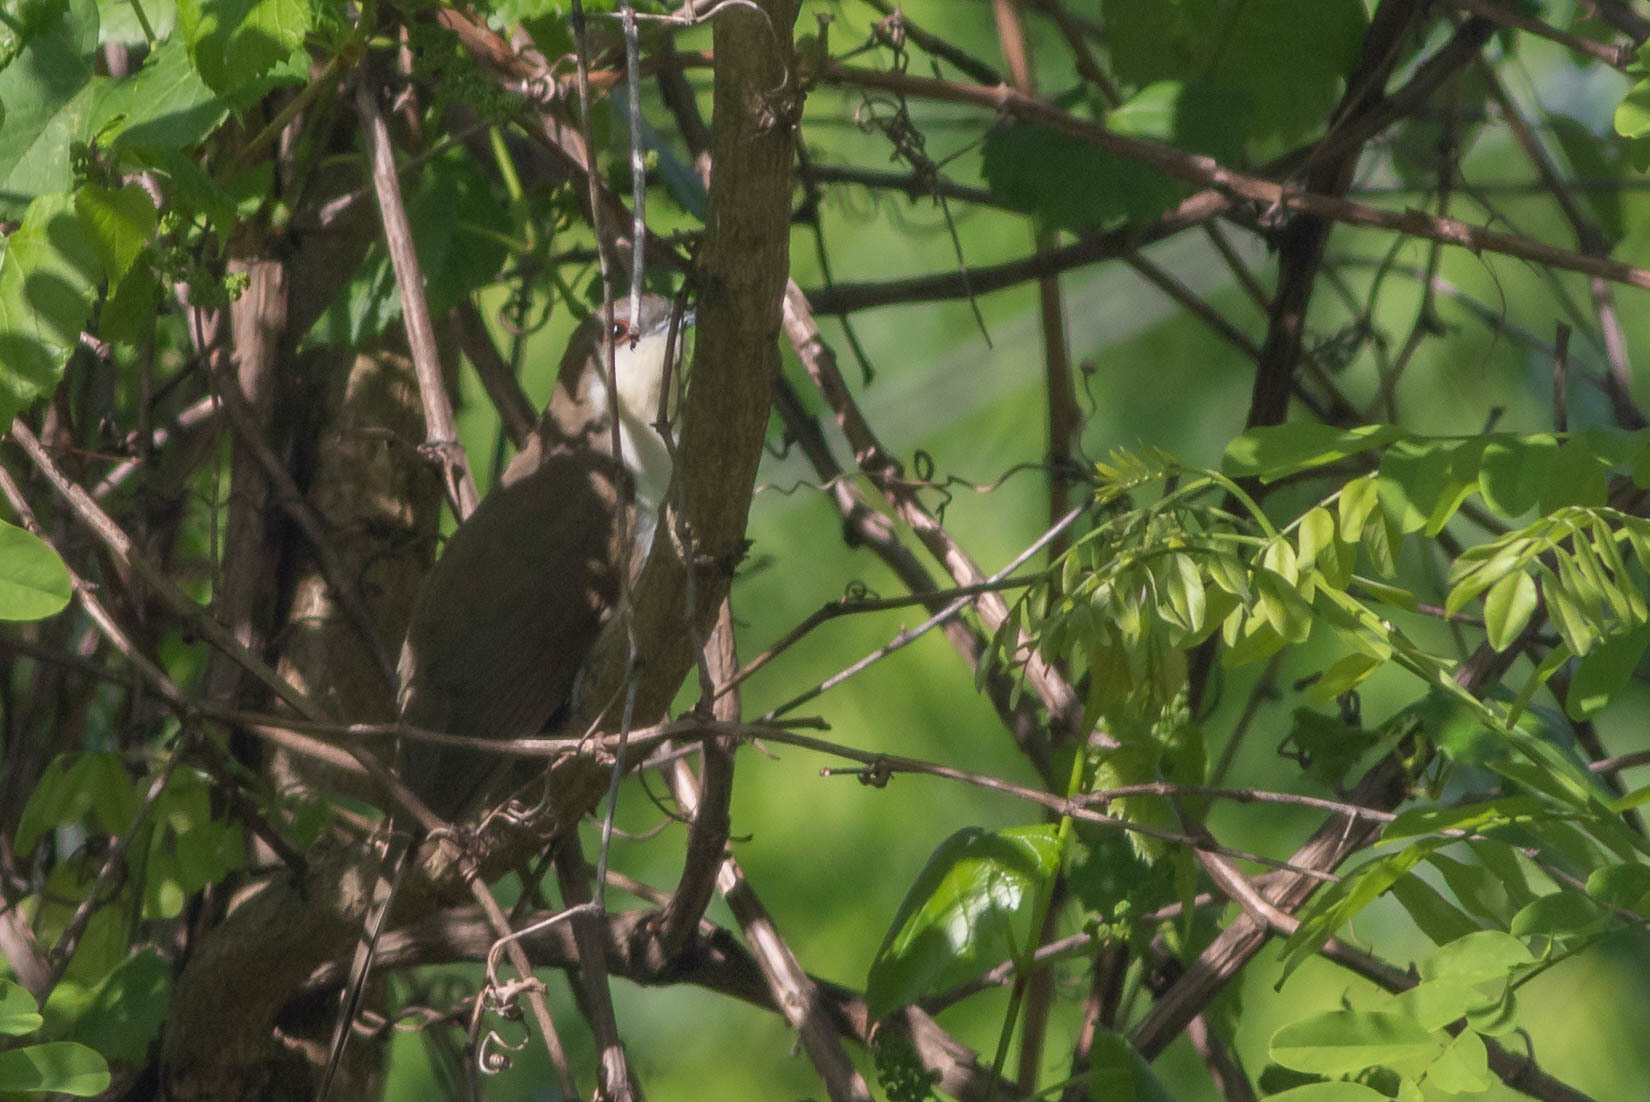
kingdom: Animalia
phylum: Chordata
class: Aves
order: Cuculiformes
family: Cuculidae
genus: Coccyzus
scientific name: Coccyzus erythropthalmus
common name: Black-billed cuckoo
